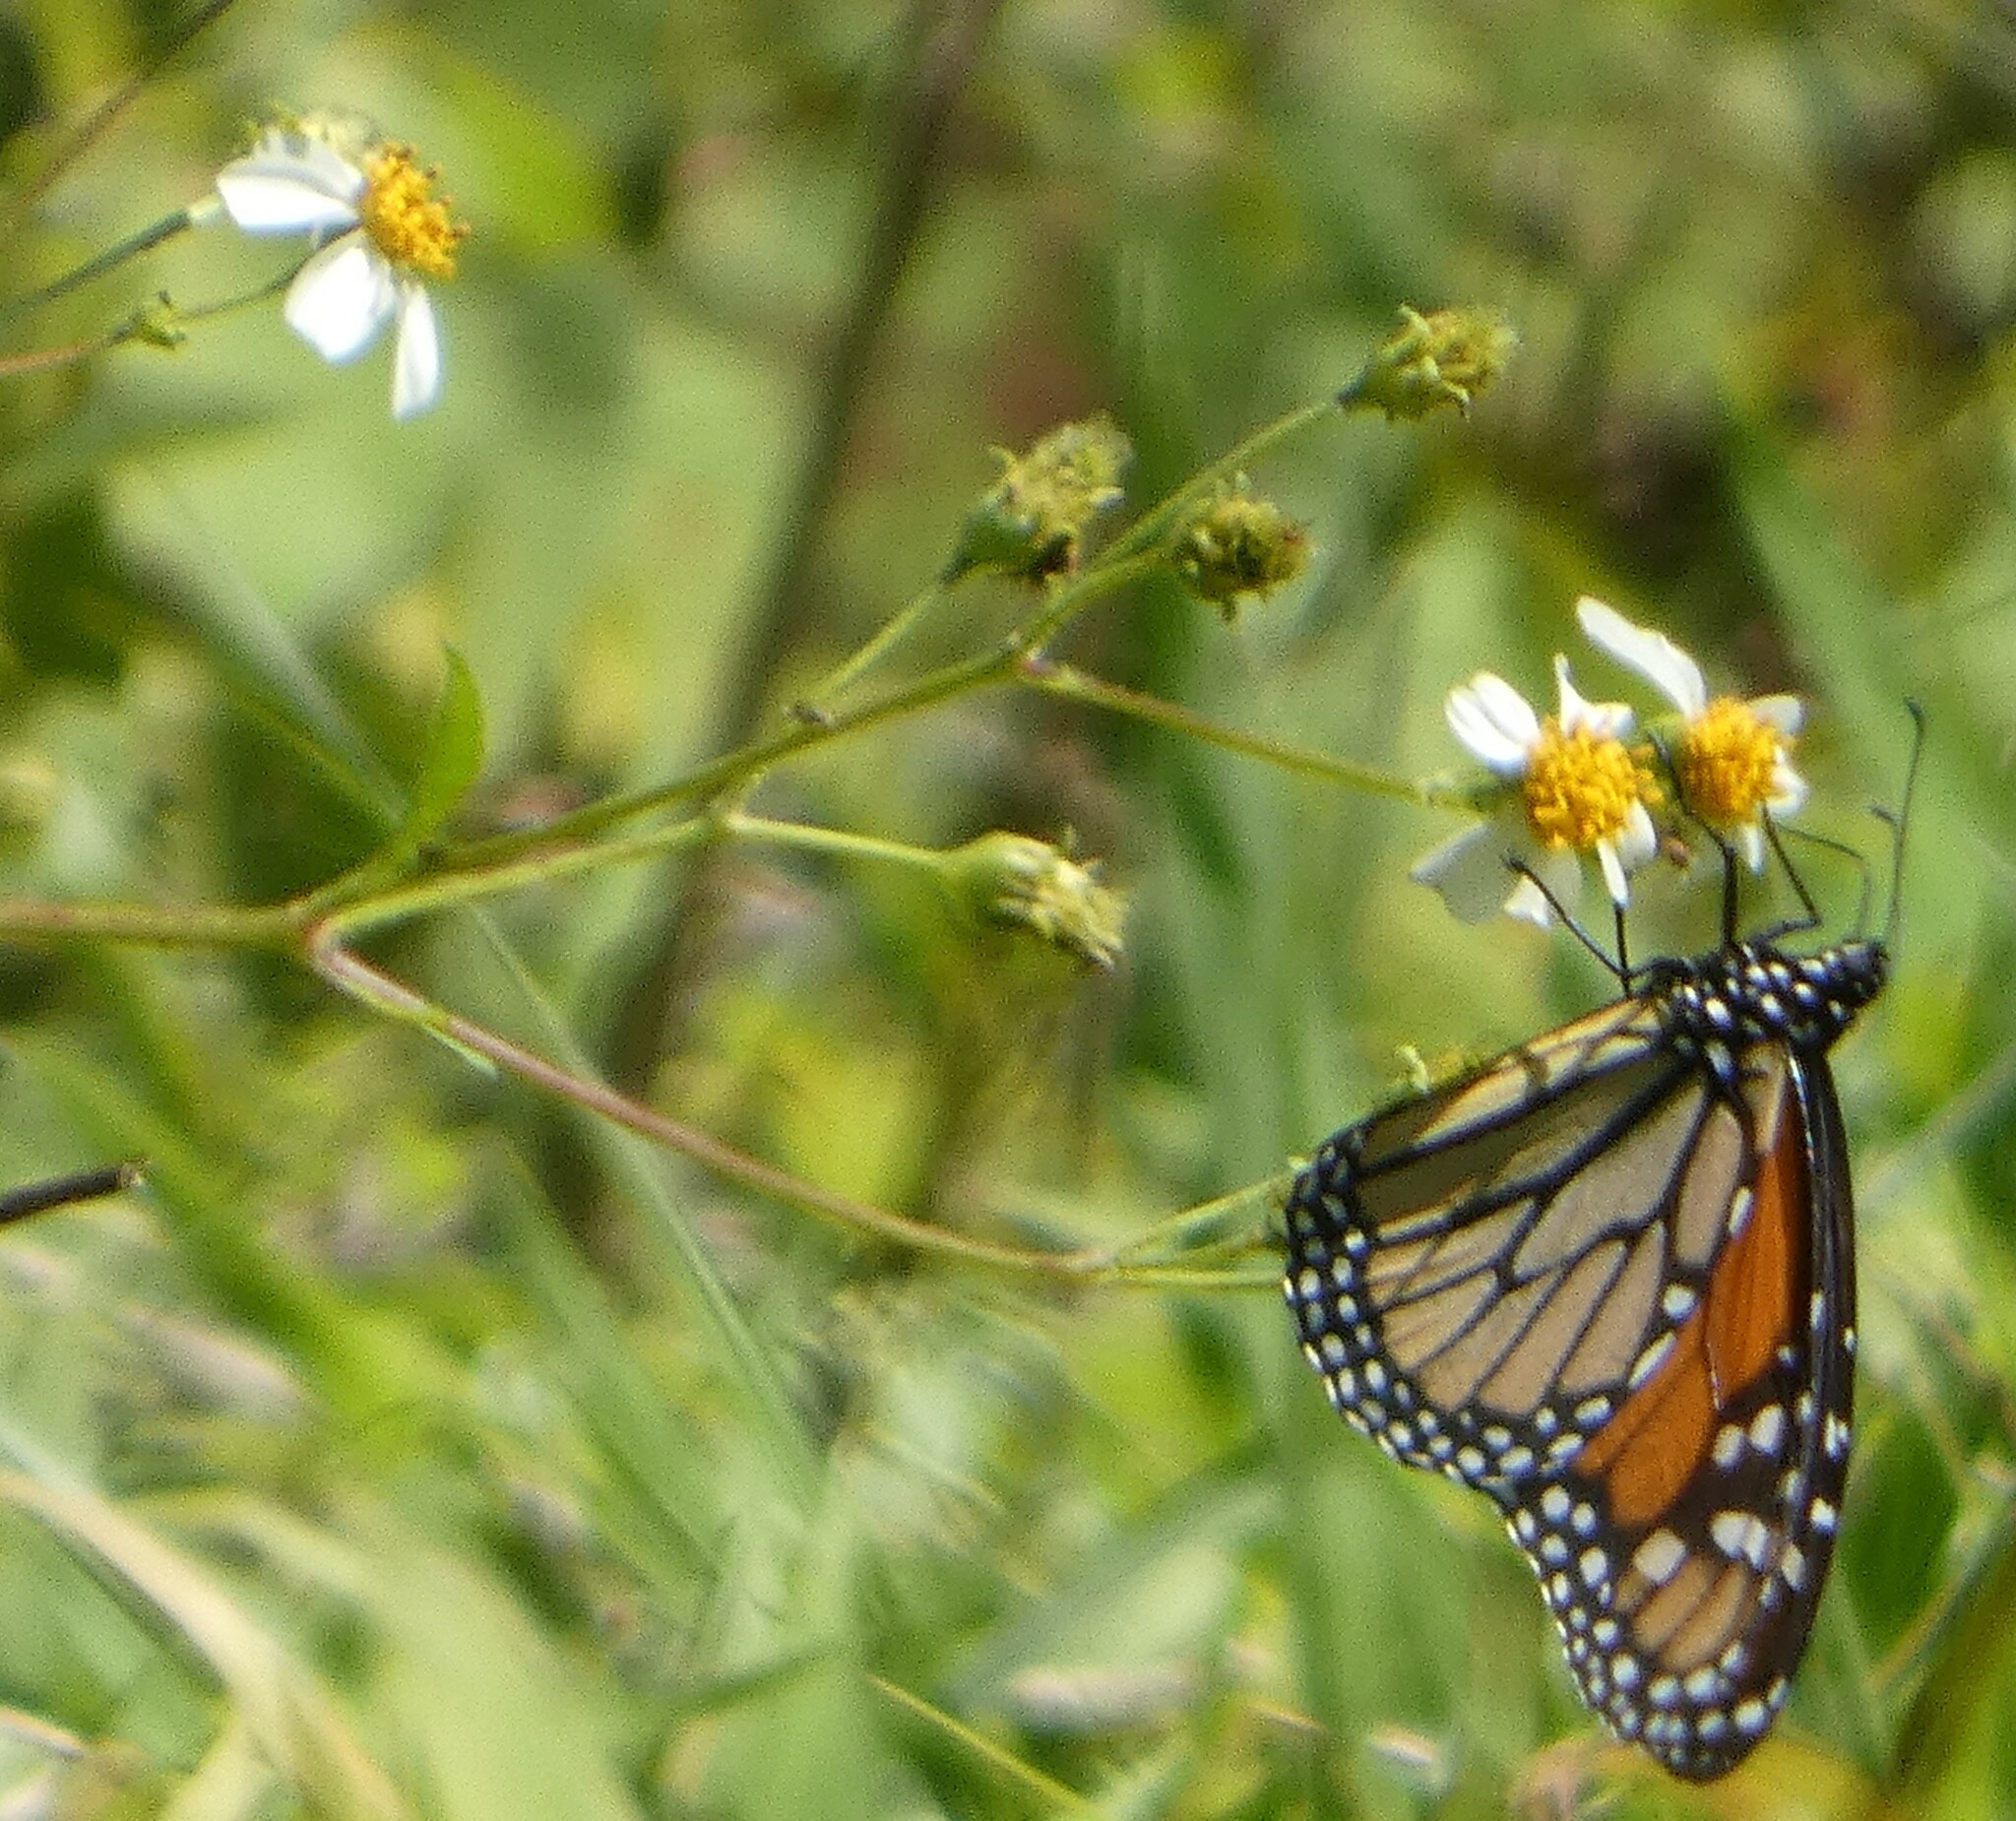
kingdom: Animalia
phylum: Arthropoda
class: Insecta
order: Lepidoptera
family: Nymphalidae
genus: Danaus
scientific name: Danaus plexippus
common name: Monarch
